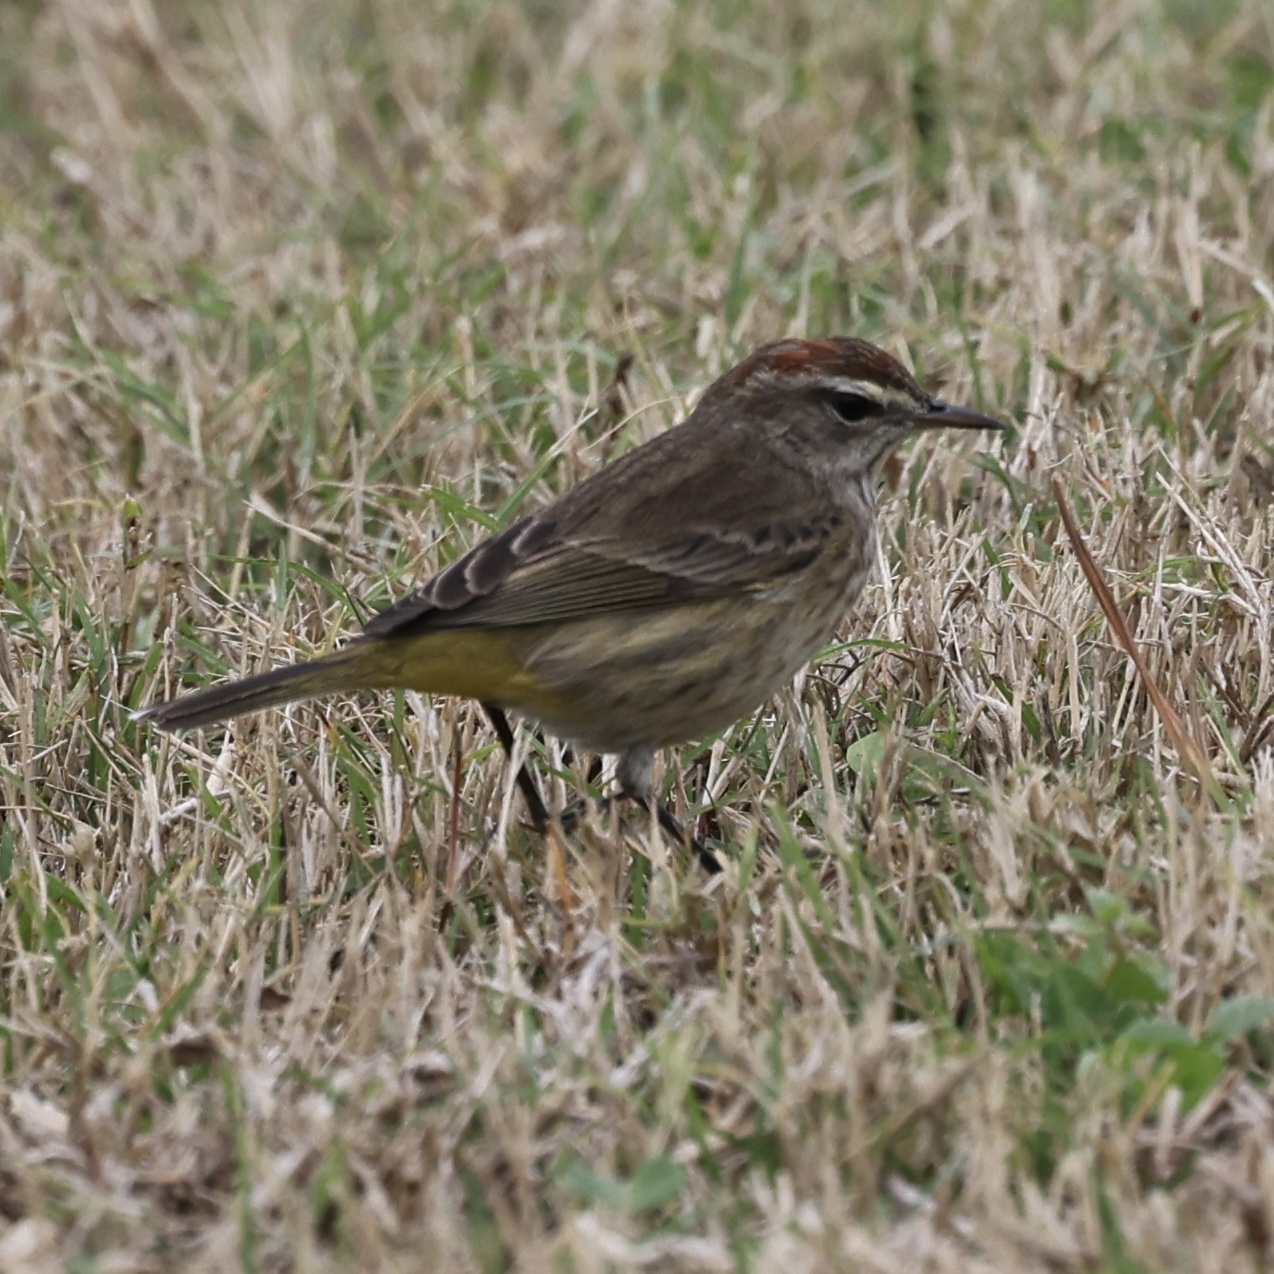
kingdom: Animalia
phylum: Chordata
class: Aves
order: Passeriformes
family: Parulidae
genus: Setophaga
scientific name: Setophaga palmarum
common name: Palm warbler
